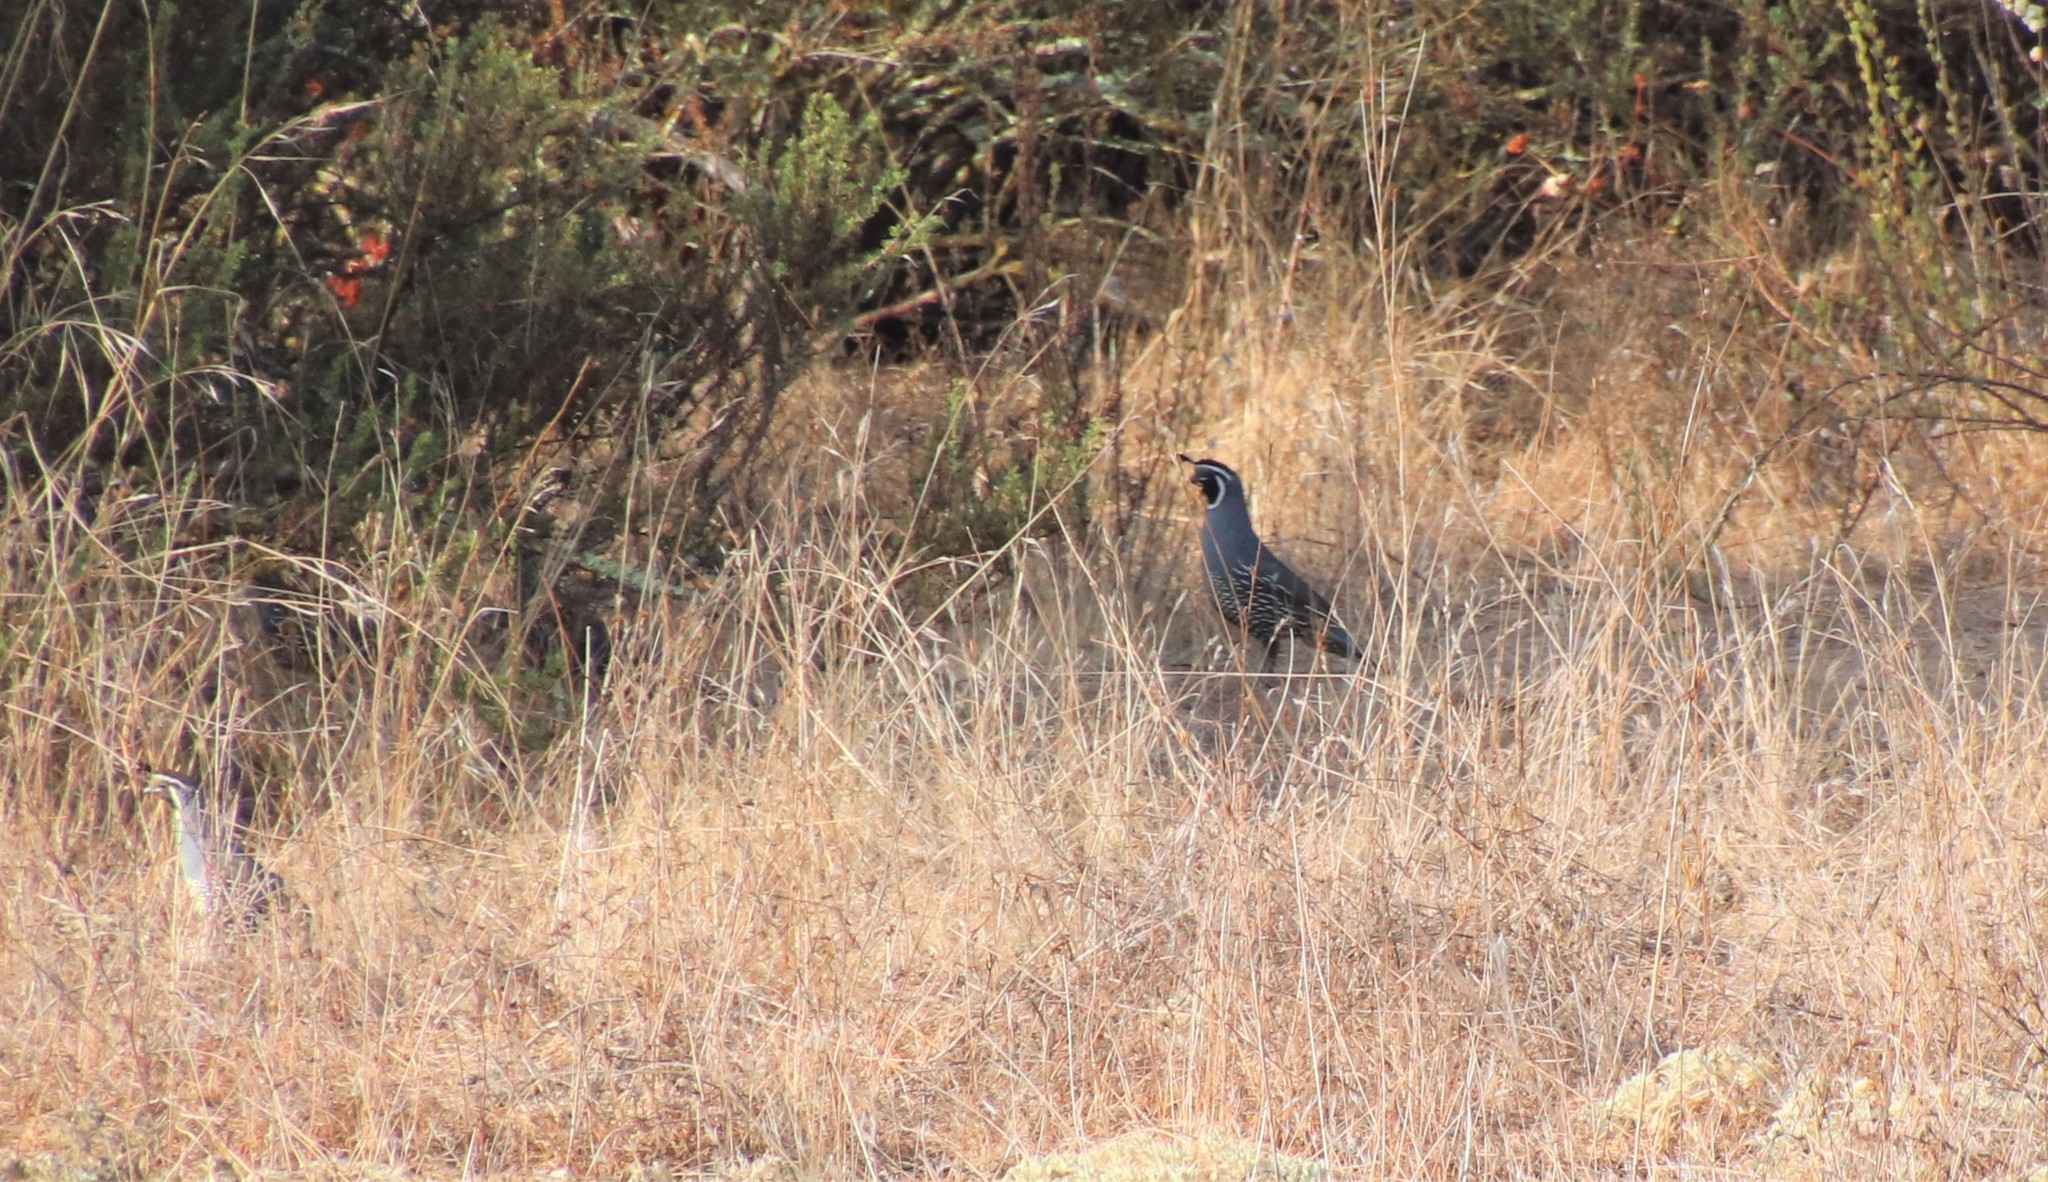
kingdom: Animalia
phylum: Chordata
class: Aves
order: Galliformes
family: Odontophoridae
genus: Callipepla
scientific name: Callipepla californica
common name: California quail
